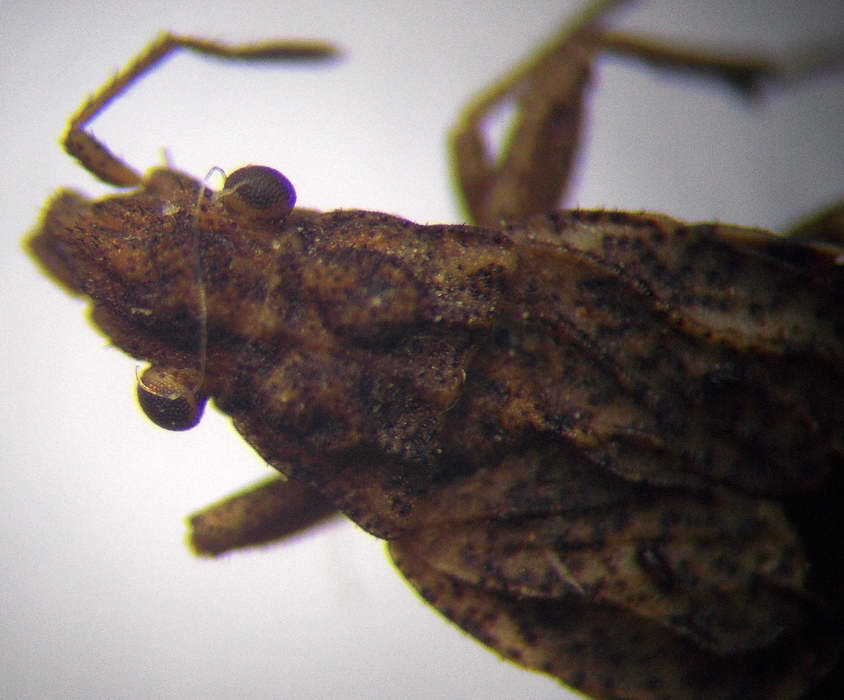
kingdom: Animalia
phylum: Arthropoda
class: Insecta
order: Hemiptera
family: Rhyparochromidae
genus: Diomphalus
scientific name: Diomphalus hispidulus
